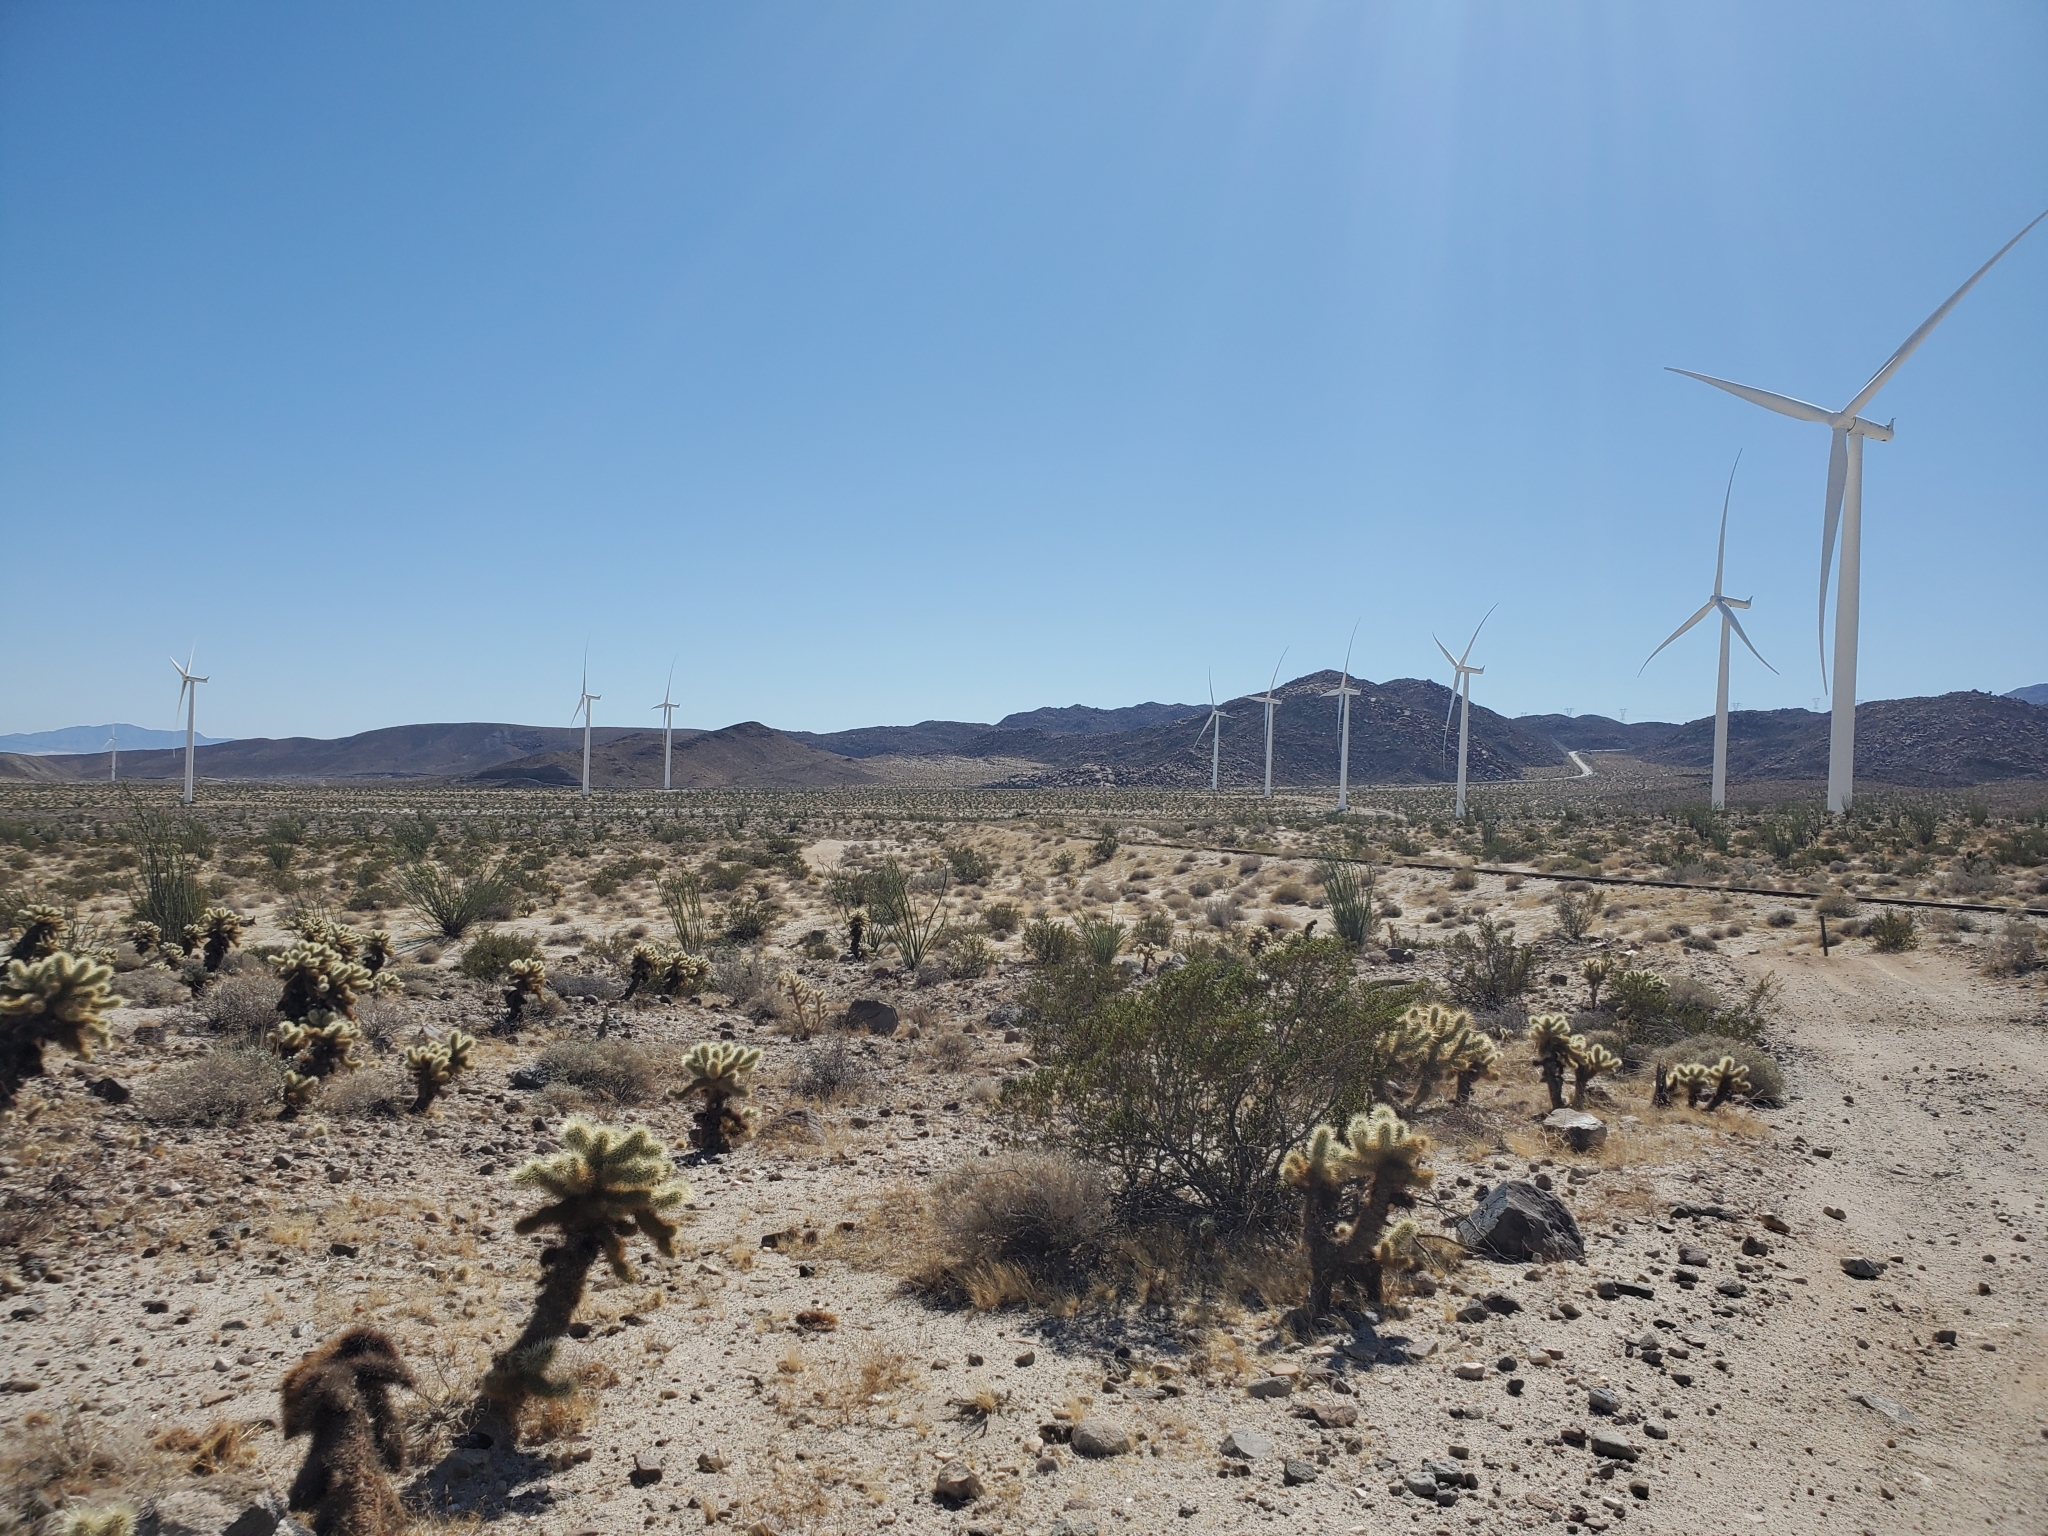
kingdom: Plantae
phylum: Tracheophyta
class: Magnoliopsida
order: Caryophyllales
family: Cactaceae
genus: Cylindropuntia
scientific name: Cylindropuntia fosbergii
